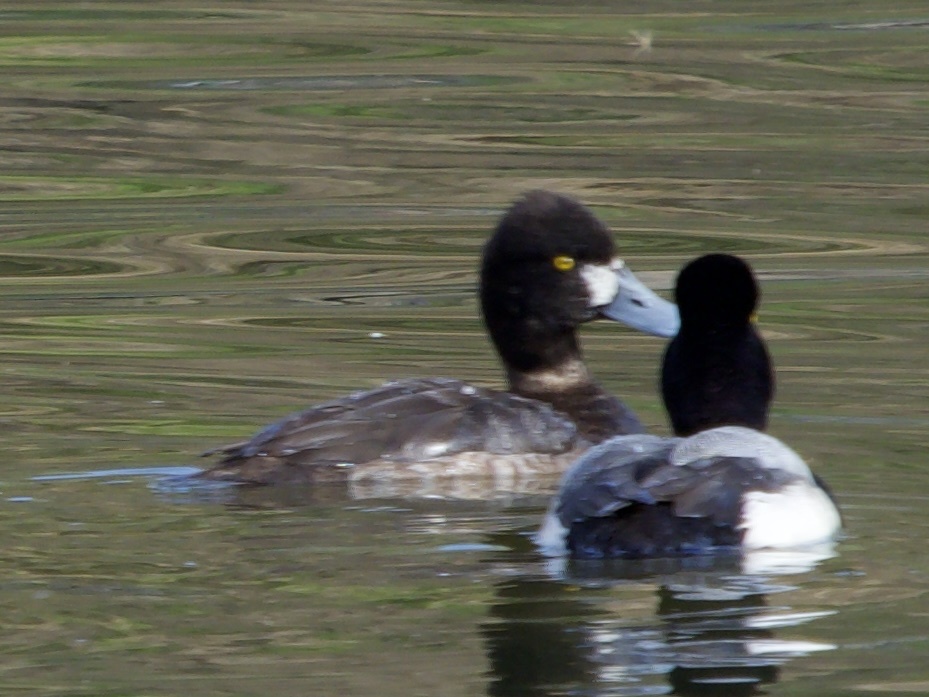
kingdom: Animalia
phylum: Chordata
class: Aves
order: Anseriformes
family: Anatidae
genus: Aythya
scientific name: Aythya affinis
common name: Lesser scaup
